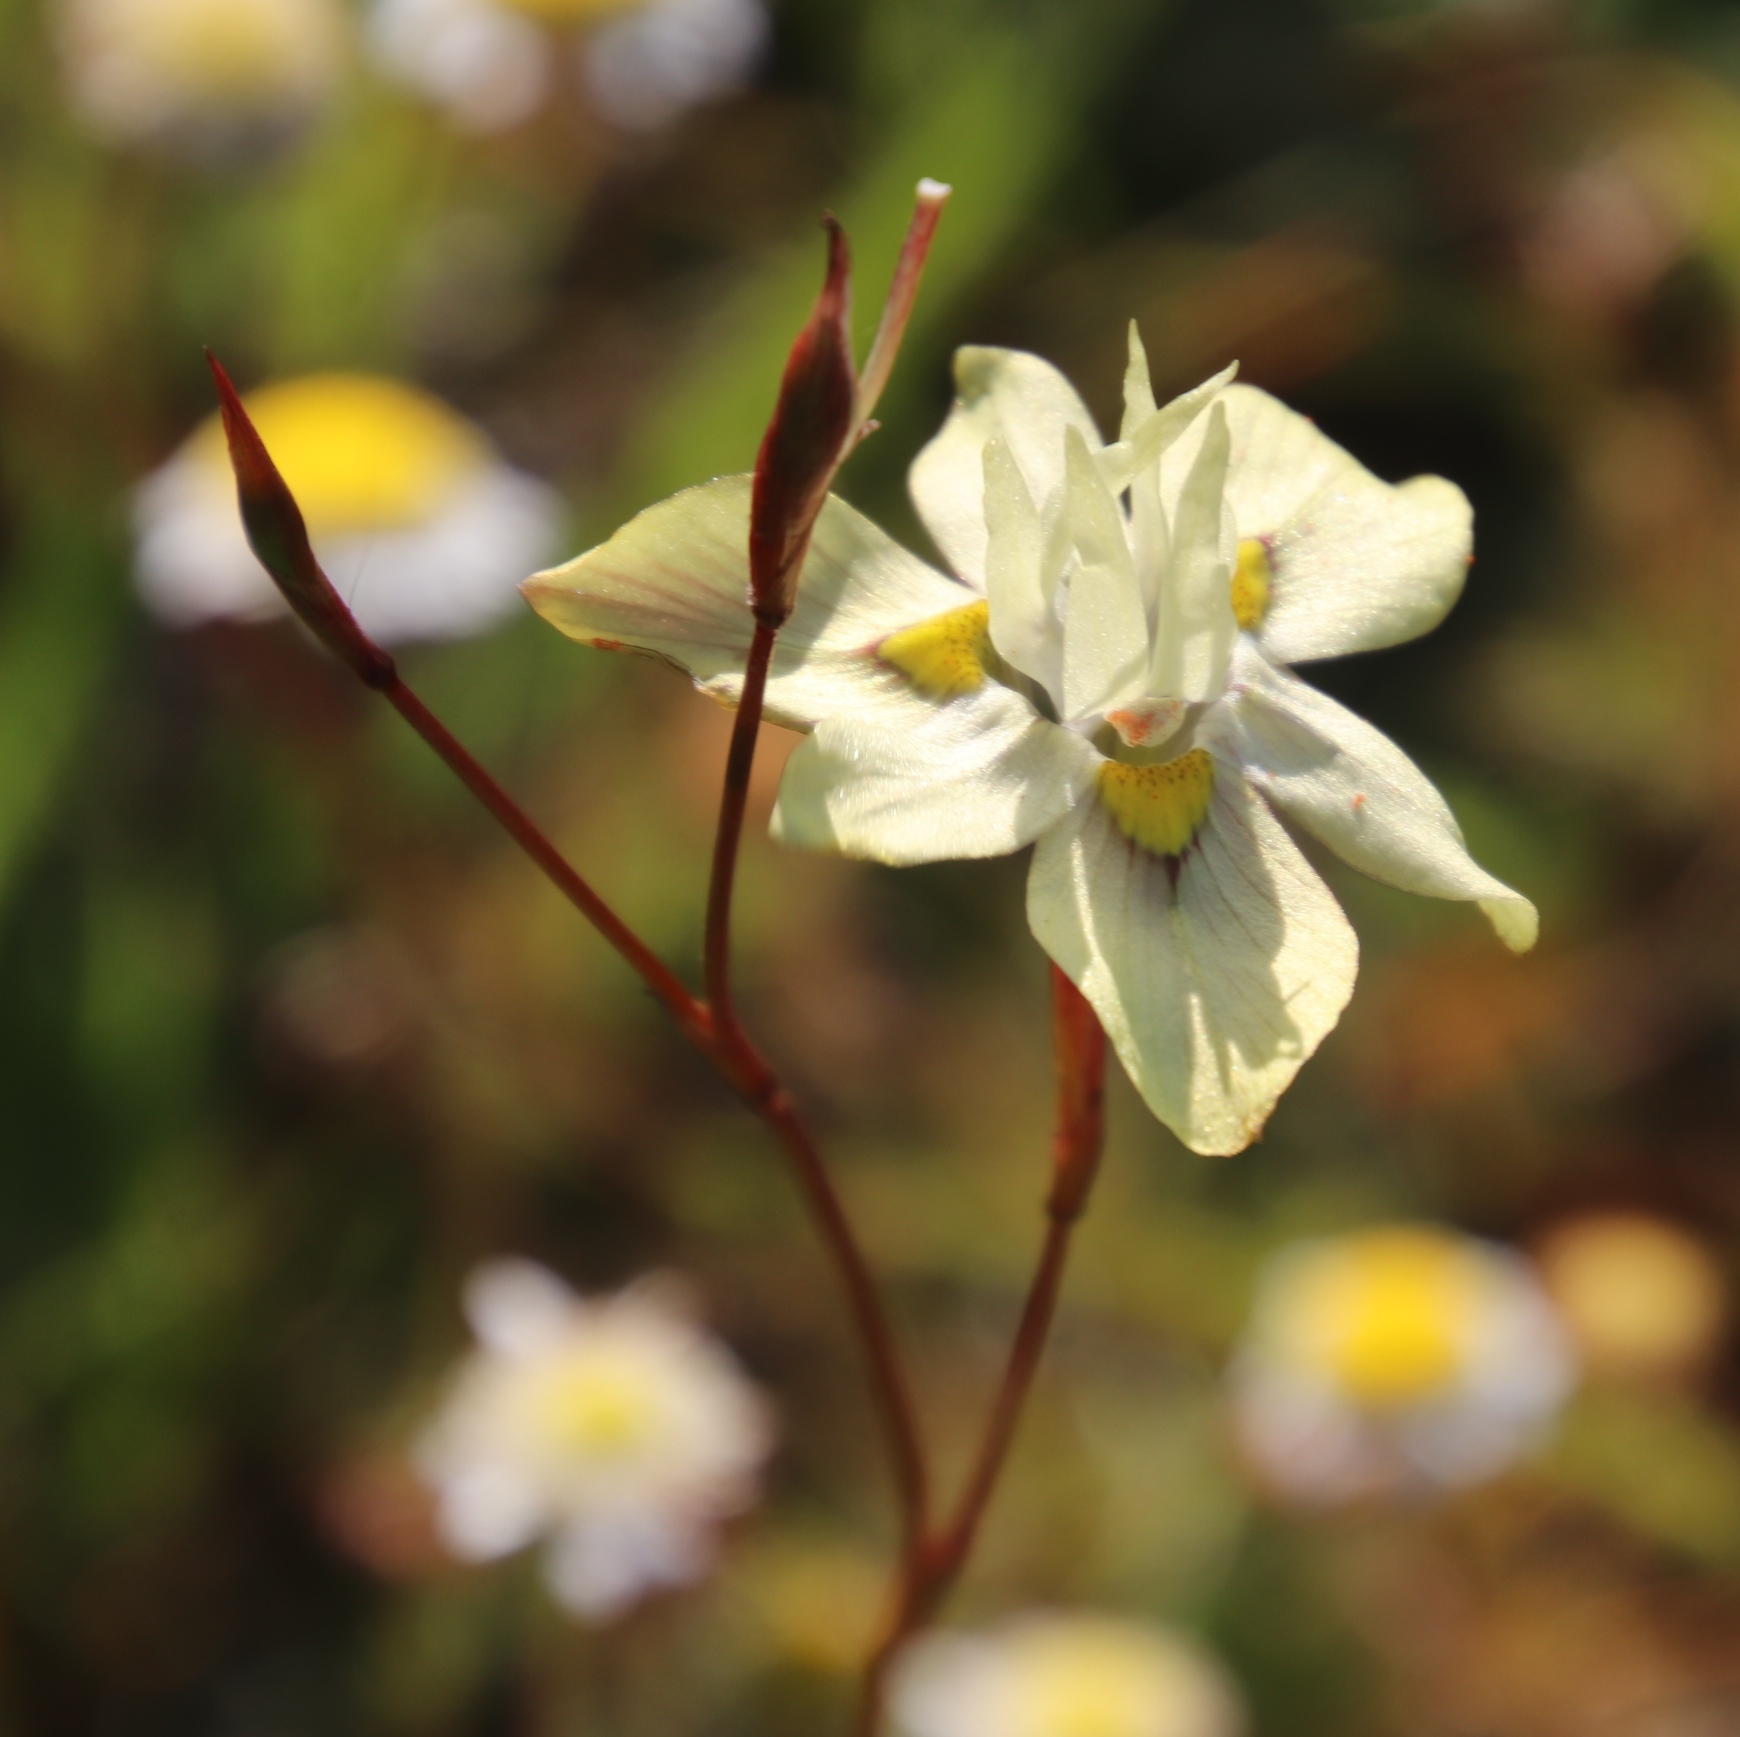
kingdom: Plantae
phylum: Tracheophyta
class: Liliopsida
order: Asparagales
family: Iridaceae
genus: Moraea
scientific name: Moraea gawleri
